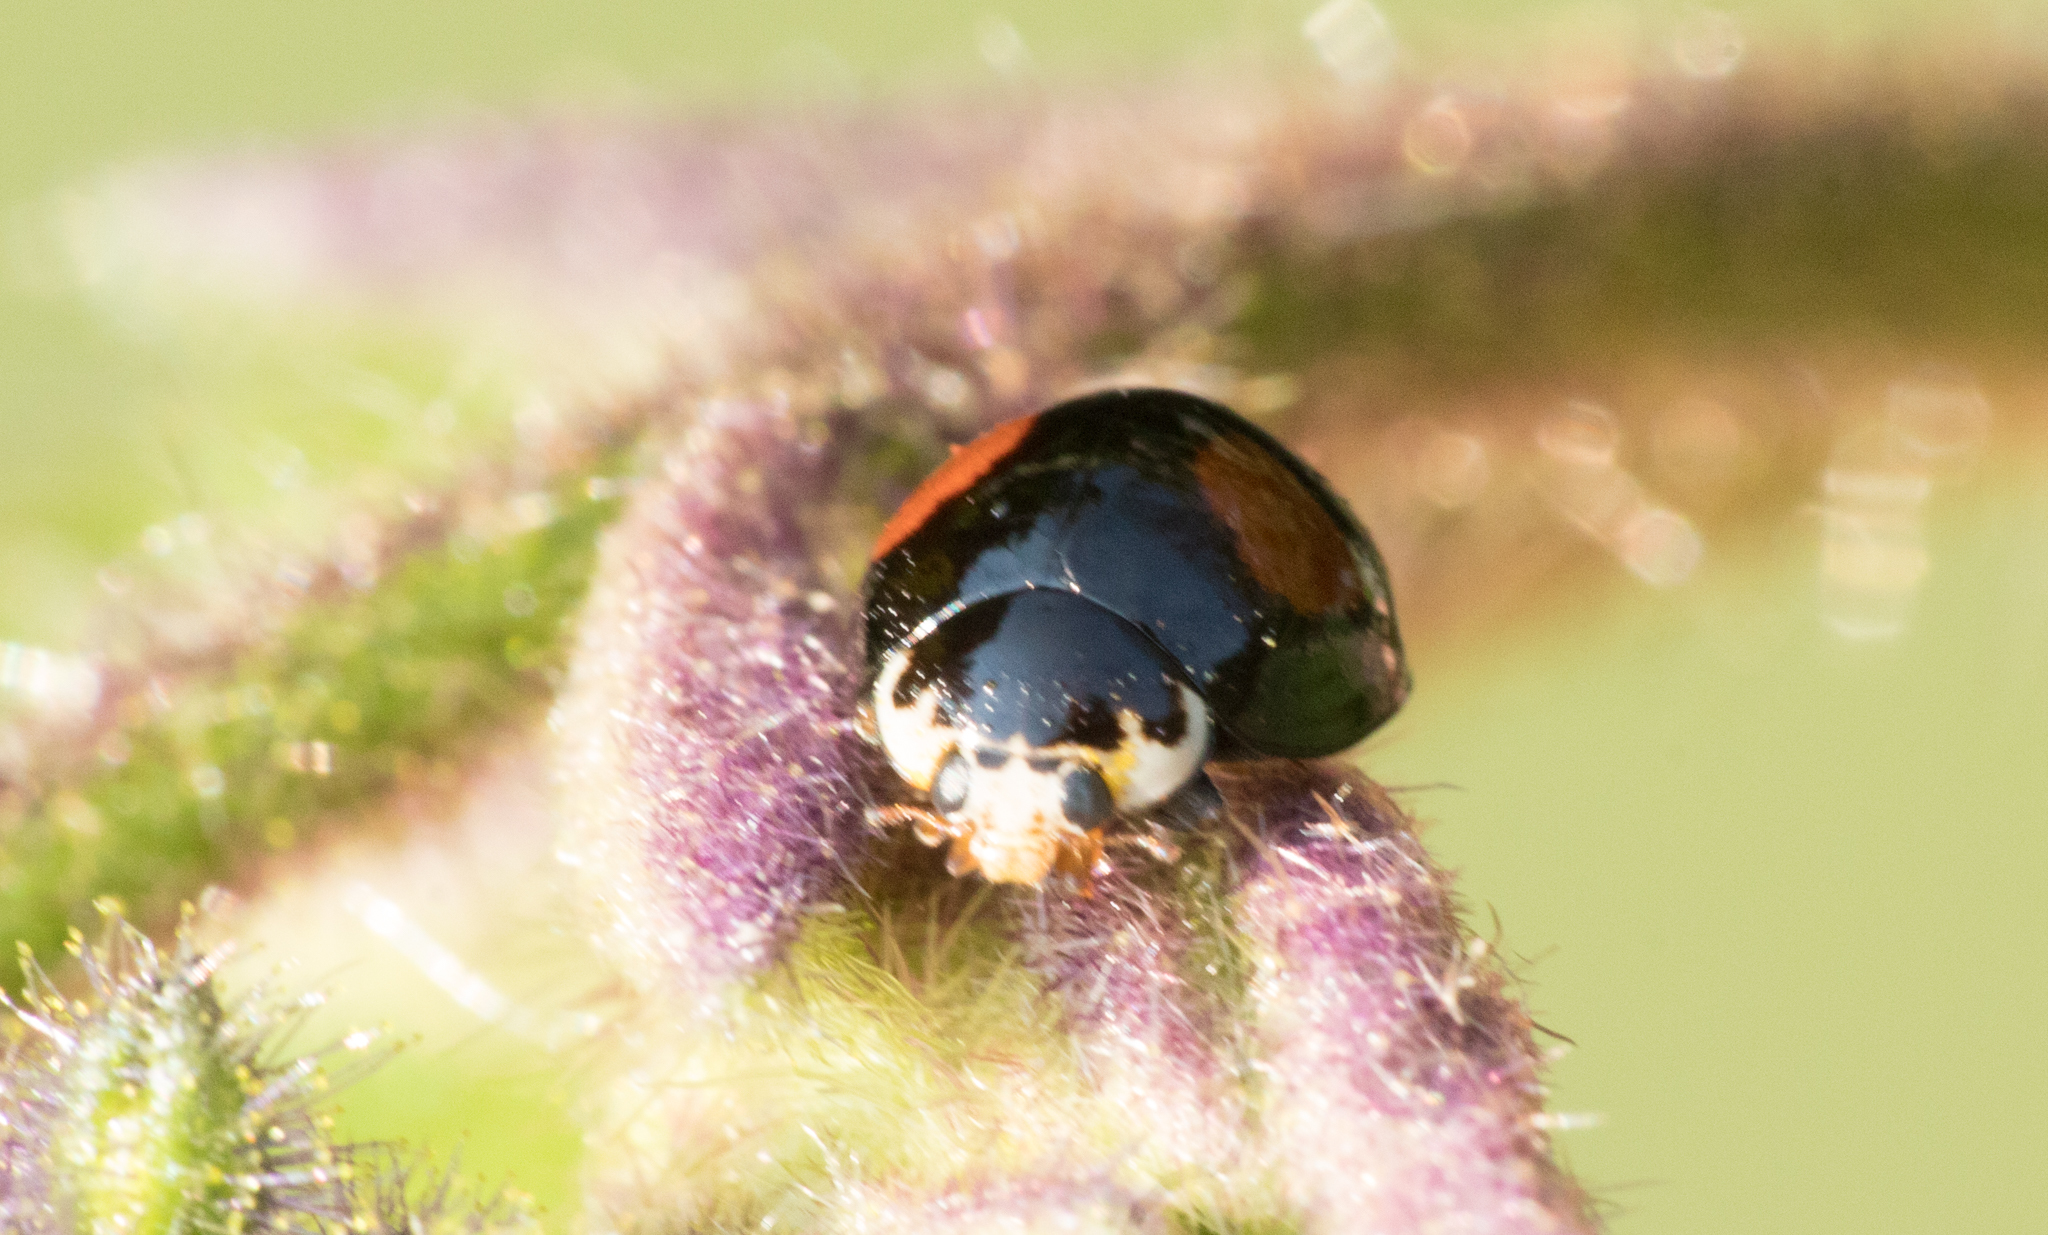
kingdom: Animalia
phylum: Arthropoda
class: Insecta
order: Coleoptera
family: Coccinellidae
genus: Olla
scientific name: Olla v-nigrum
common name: Ashy gray lady beetle
